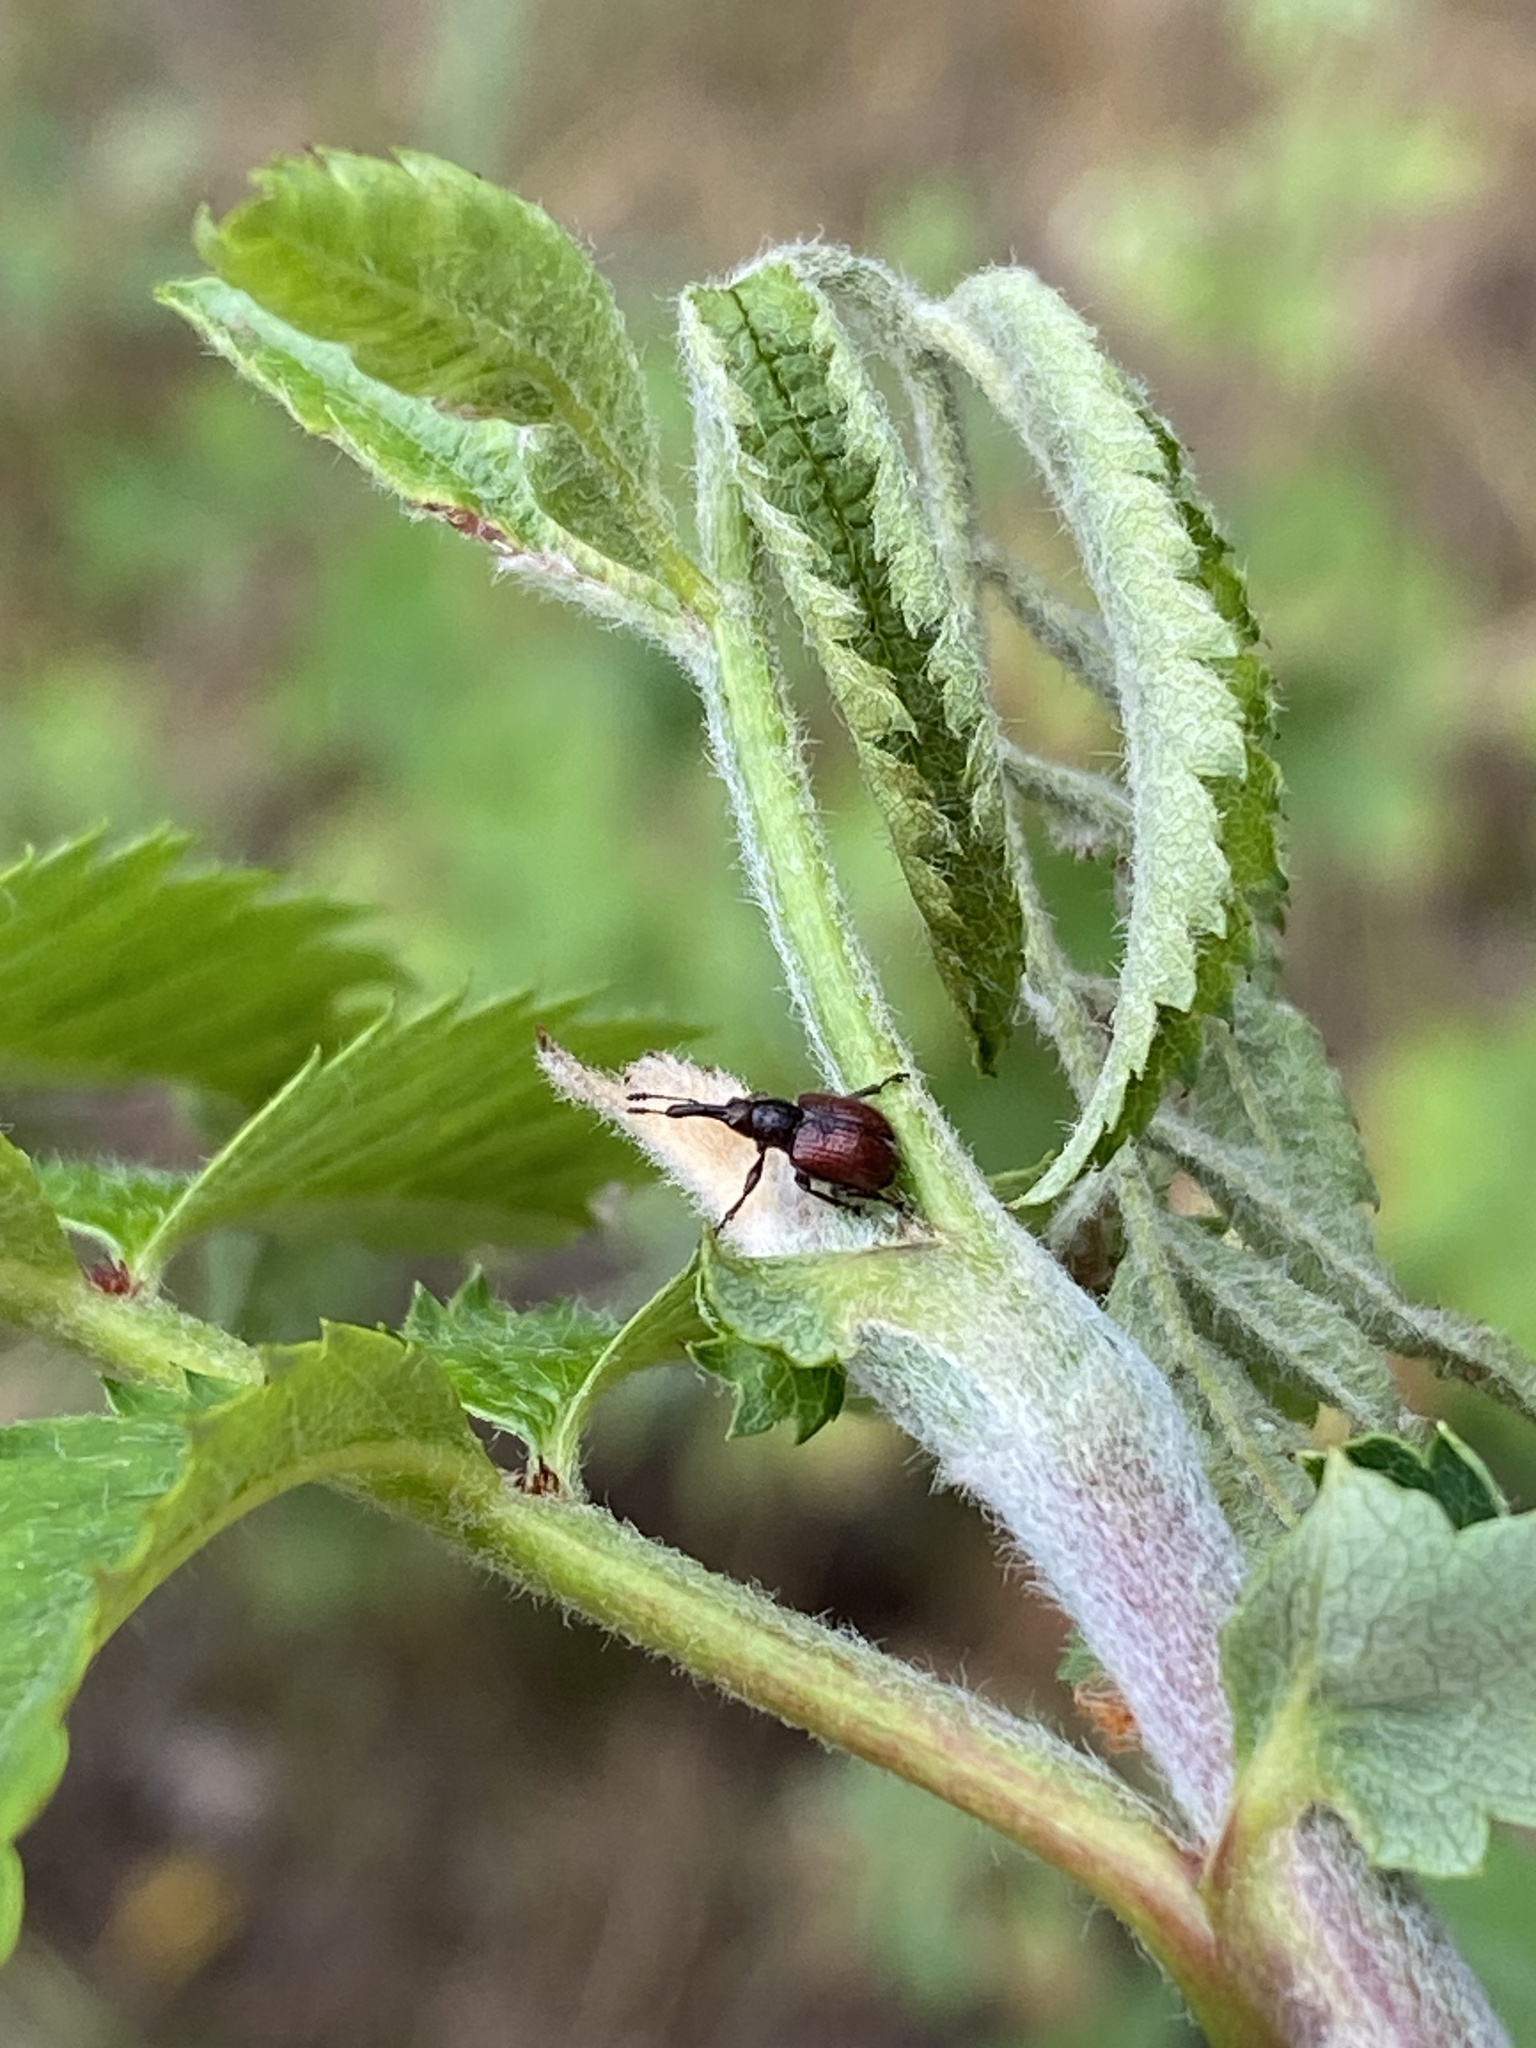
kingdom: Animalia
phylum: Arthropoda
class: Insecta
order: Coleoptera
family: Rhynchitidae
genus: Tatianaerhynchites
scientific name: Tatianaerhynchites aequatus
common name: Apple fruit rhynchites
